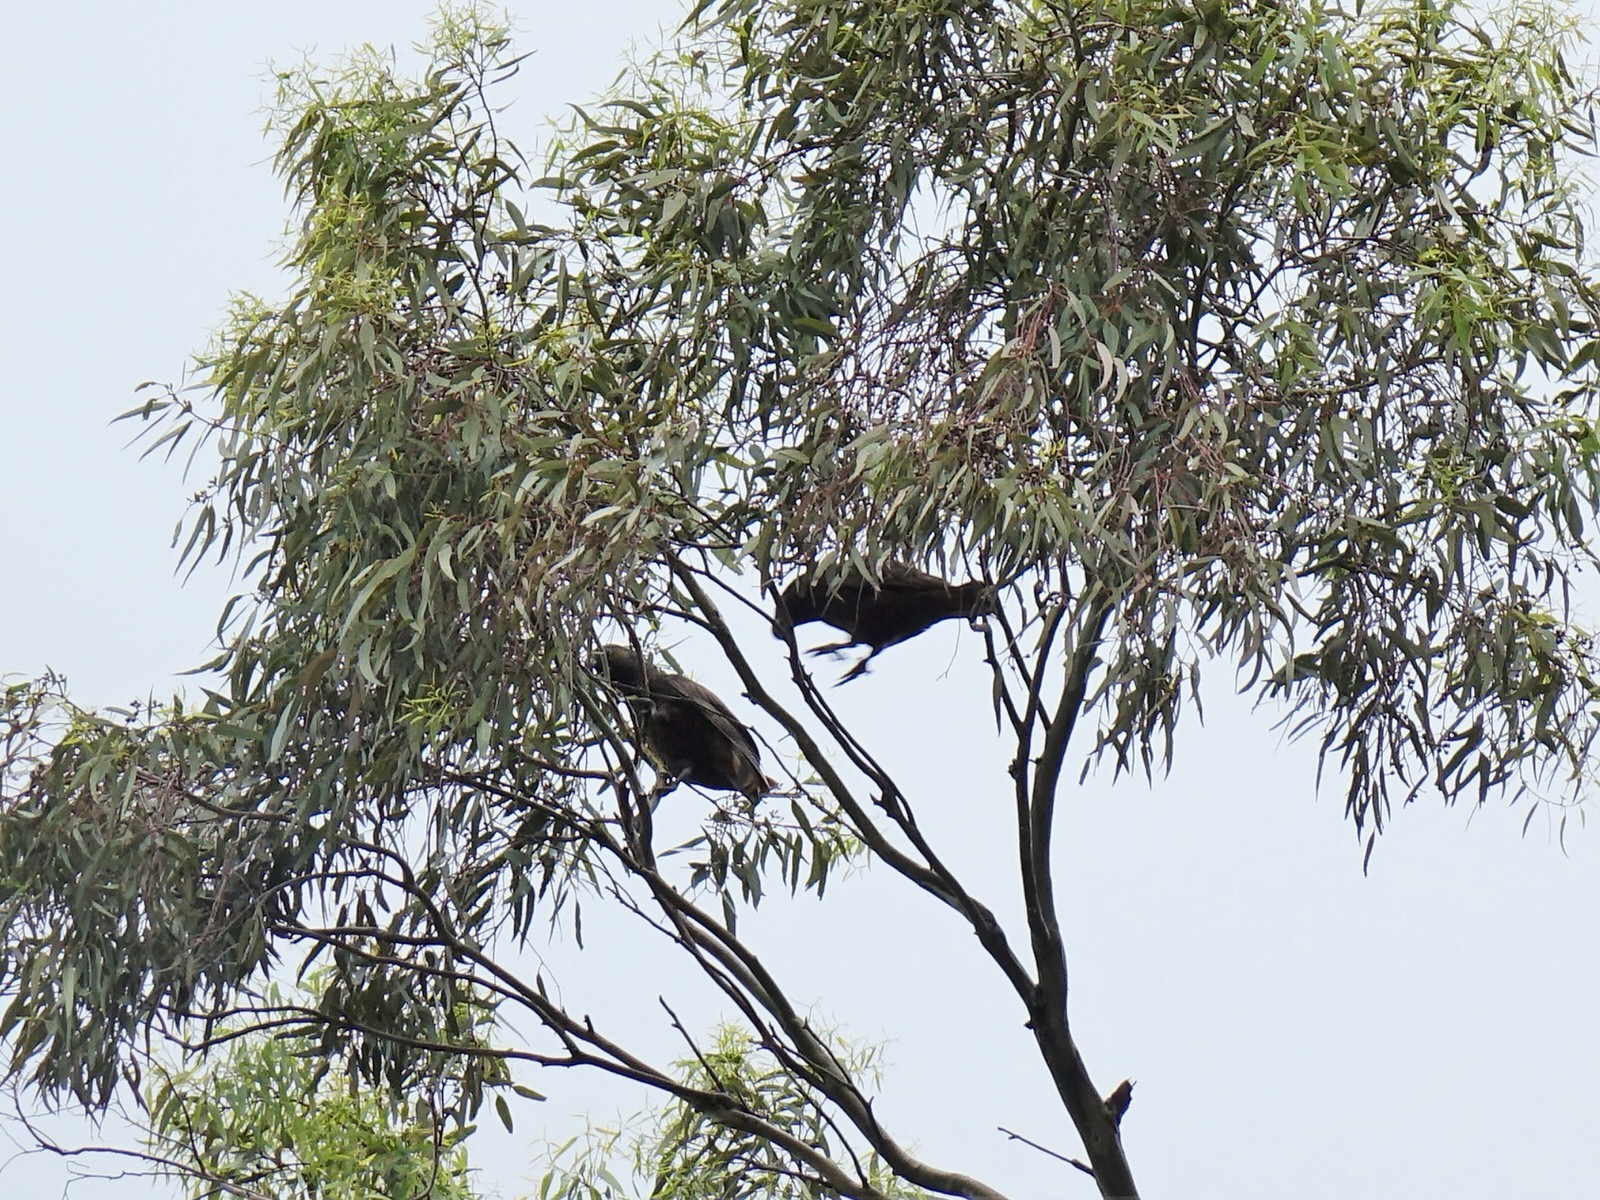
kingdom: Animalia
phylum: Chordata
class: Aves
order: Psittaciformes
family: Psittacidae
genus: Nestor
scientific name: Nestor meridionalis
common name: New zealand kaka
